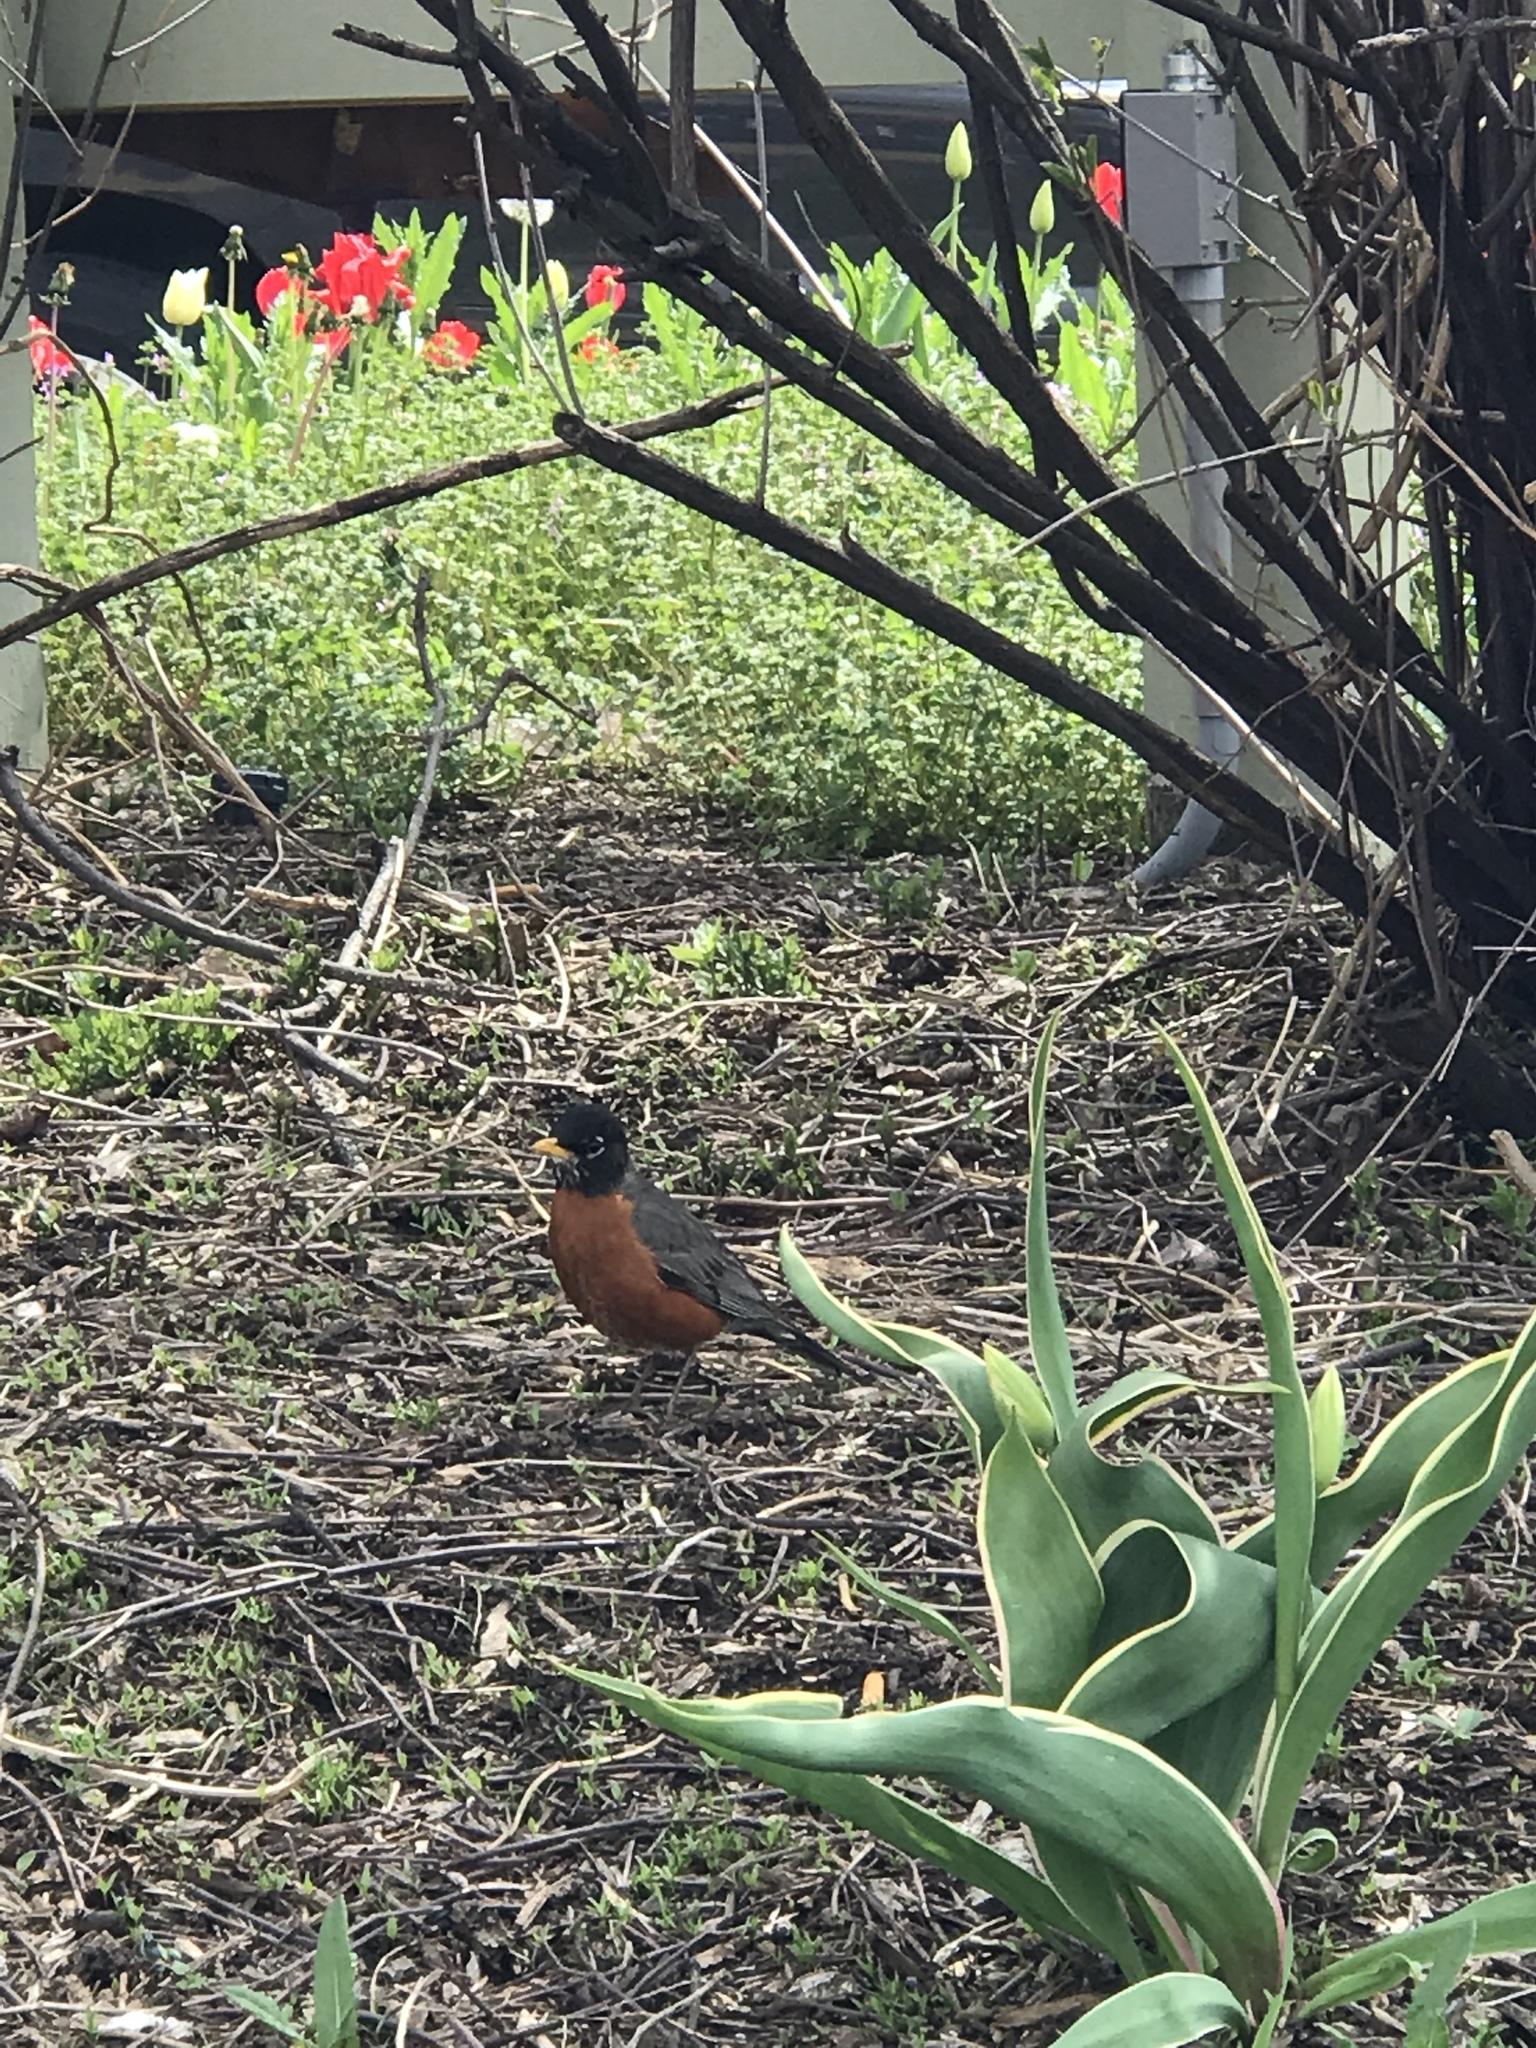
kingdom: Animalia
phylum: Chordata
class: Aves
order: Passeriformes
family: Turdidae
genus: Turdus
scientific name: Turdus migratorius
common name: American robin
